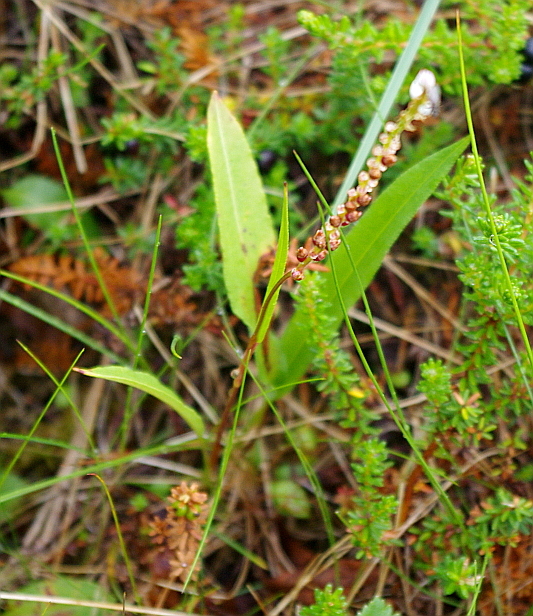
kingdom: Plantae
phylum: Tracheophyta
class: Magnoliopsida
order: Caryophyllales
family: Polygonaceae
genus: Bistorta
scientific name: Bistorta vivipara
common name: Alpine bistort
